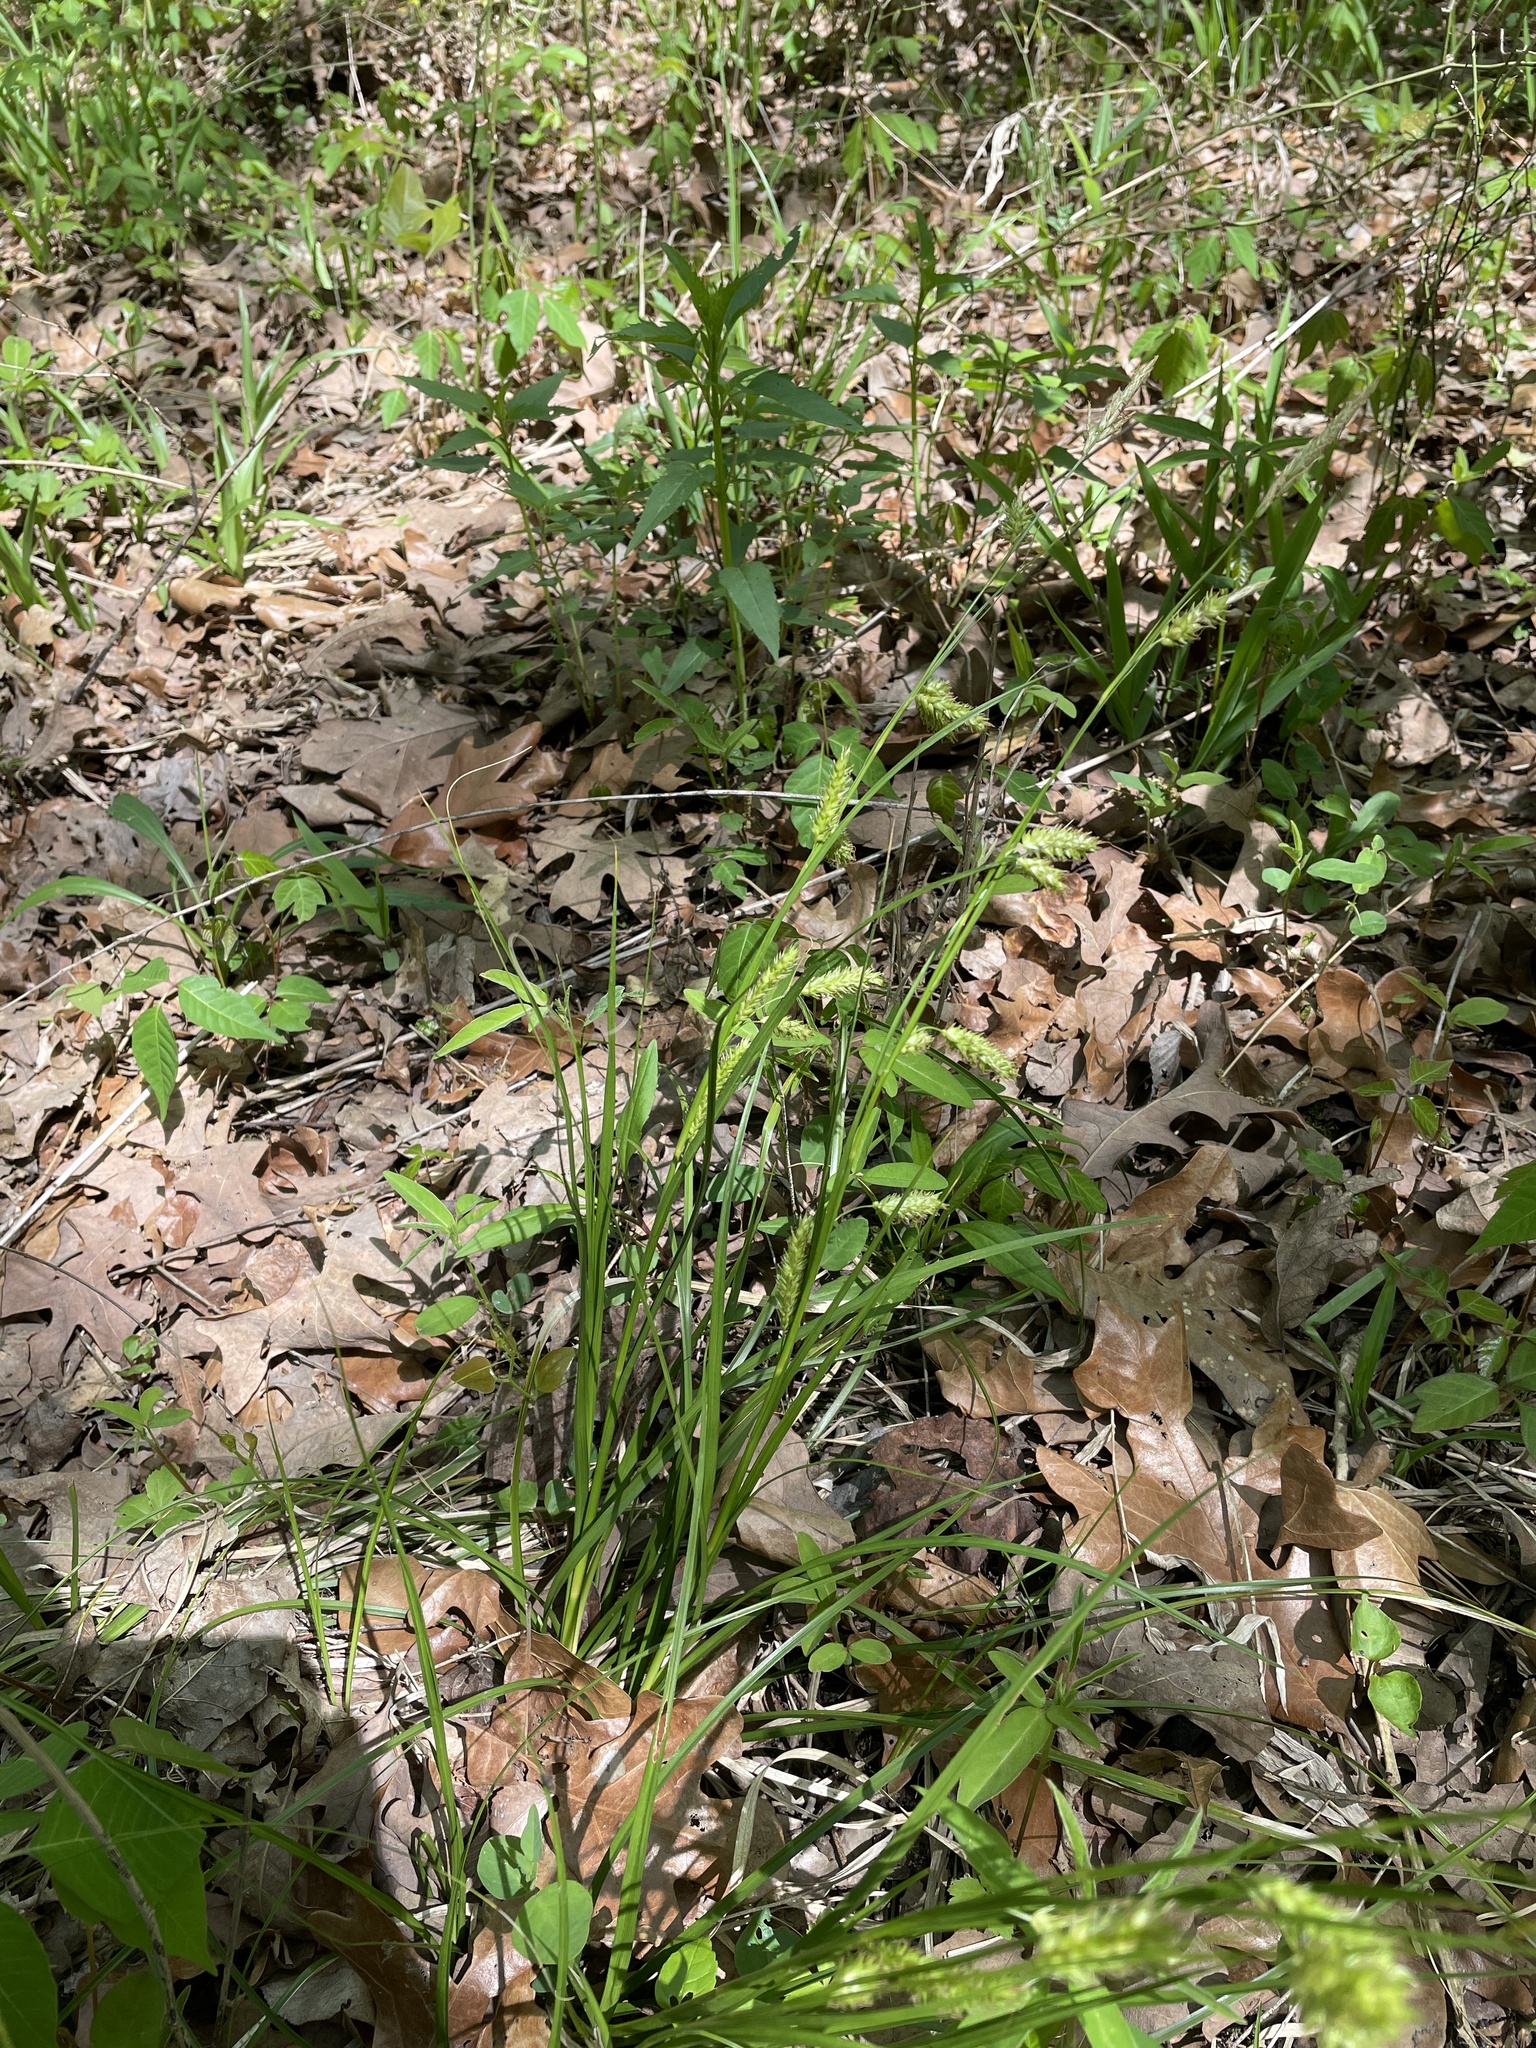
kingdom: Plantae
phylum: Tracheophyta
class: Liliopsida
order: Poales
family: Cyperaceae
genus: Carex
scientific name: Carex cherokeensis
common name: Cherokee sedge
